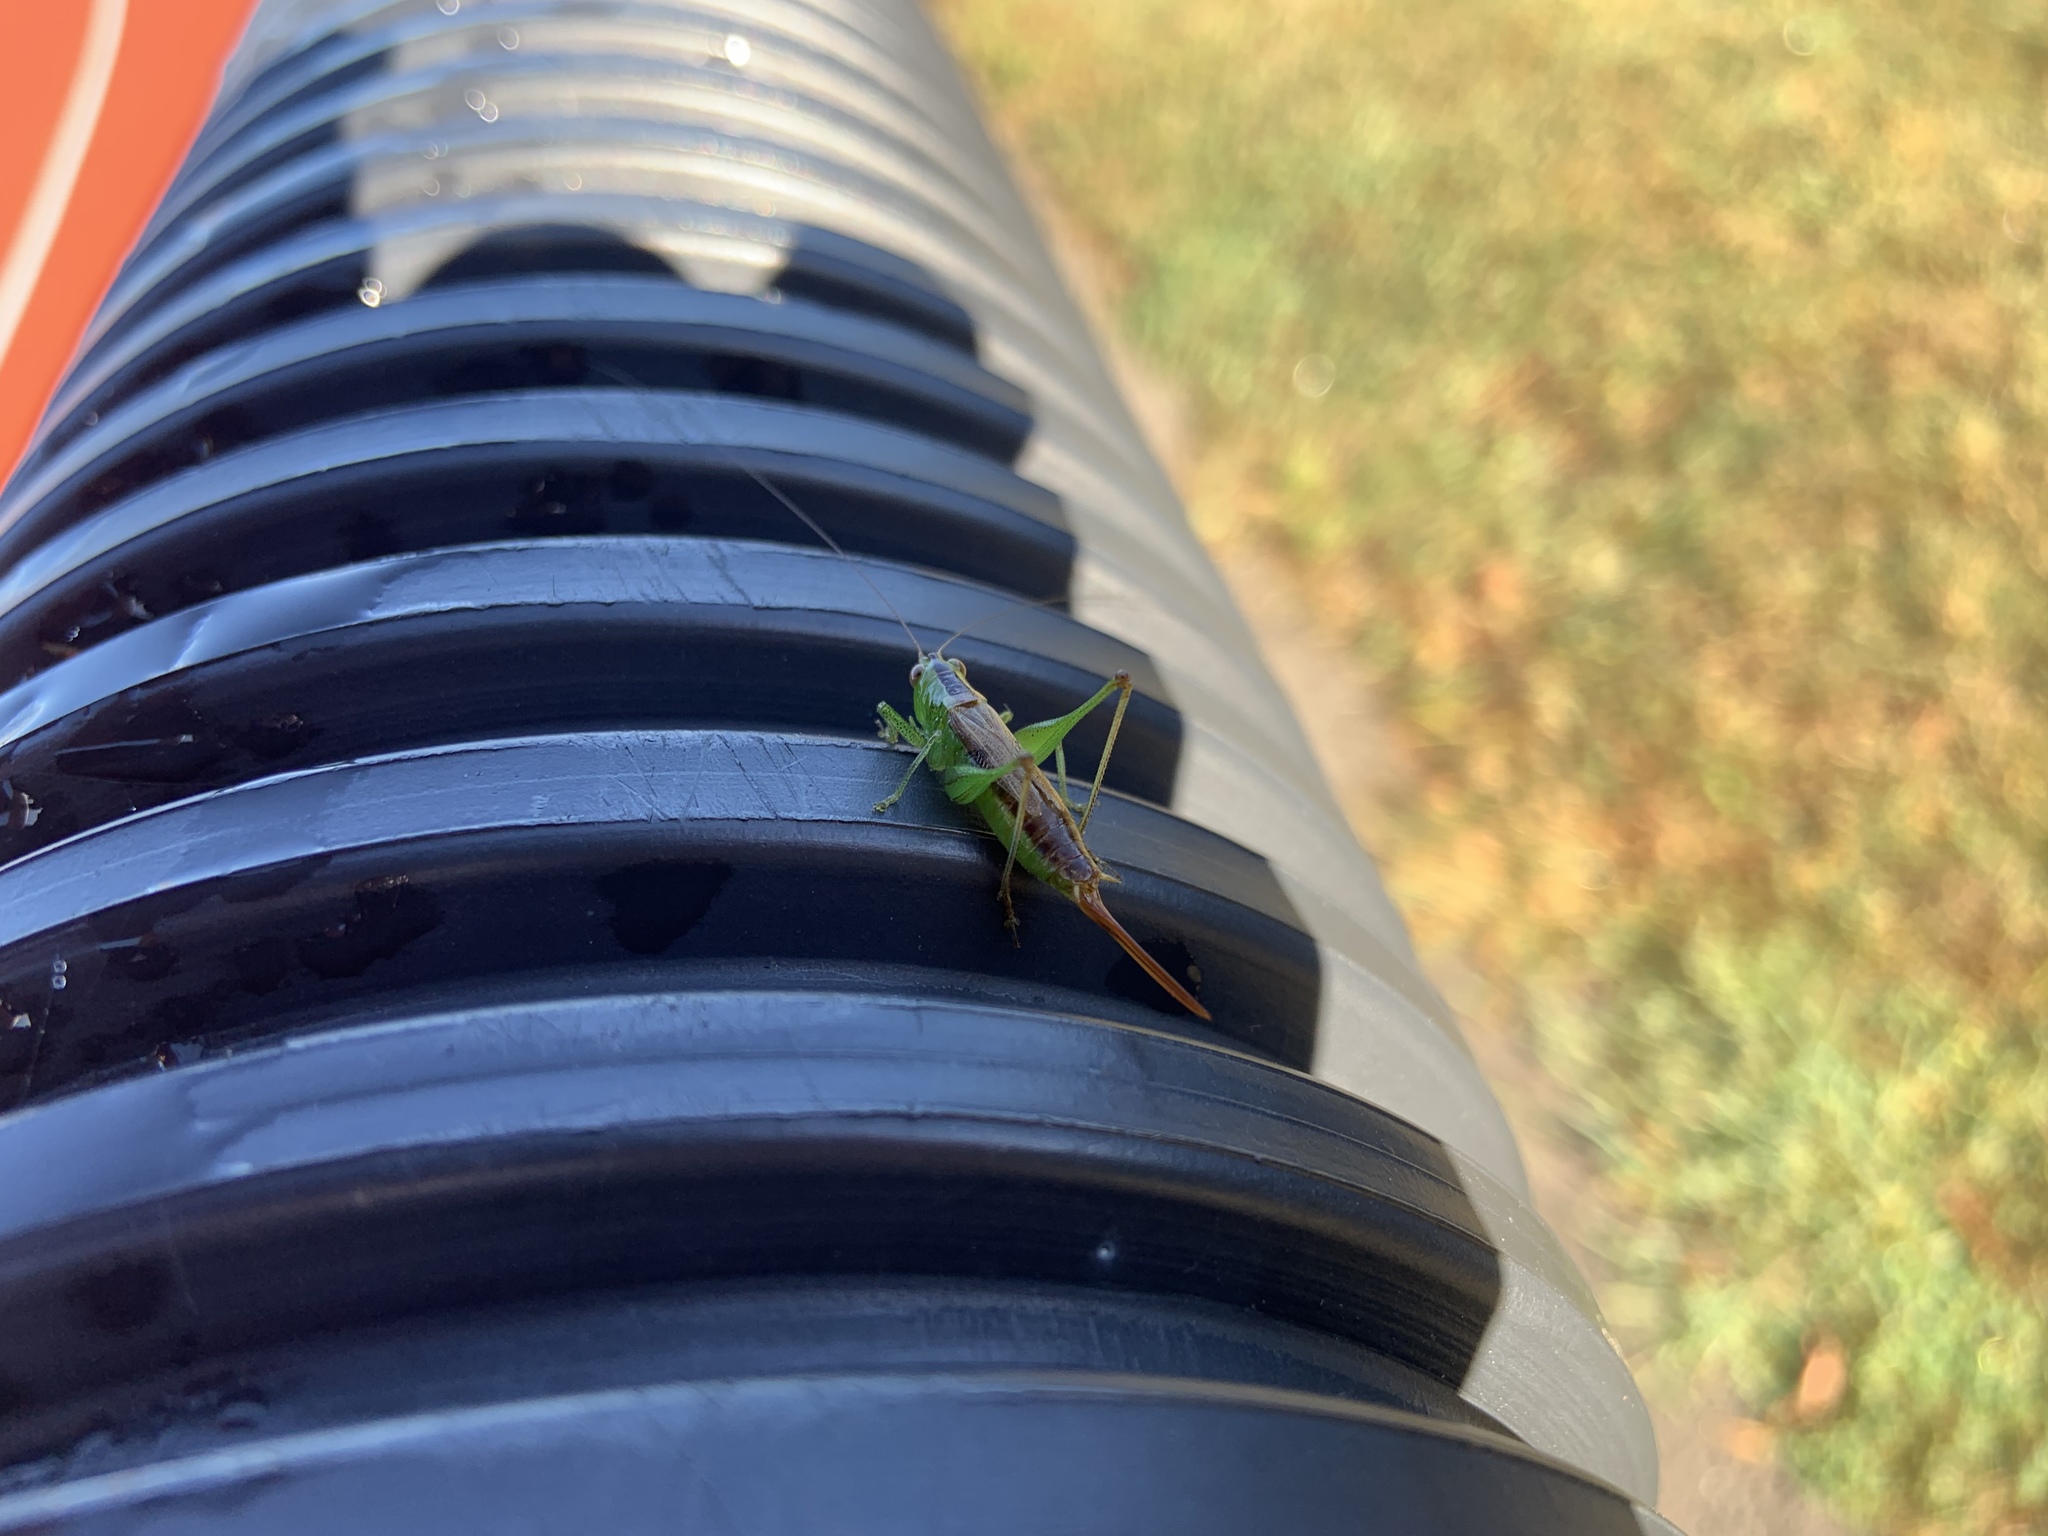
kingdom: Animalia
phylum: Arthropoda
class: Insecta
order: Orthoptera
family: Tettigoniidae
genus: Conocephalus
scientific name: Conocephalus brevipennis
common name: Short-winged meadow katydid
